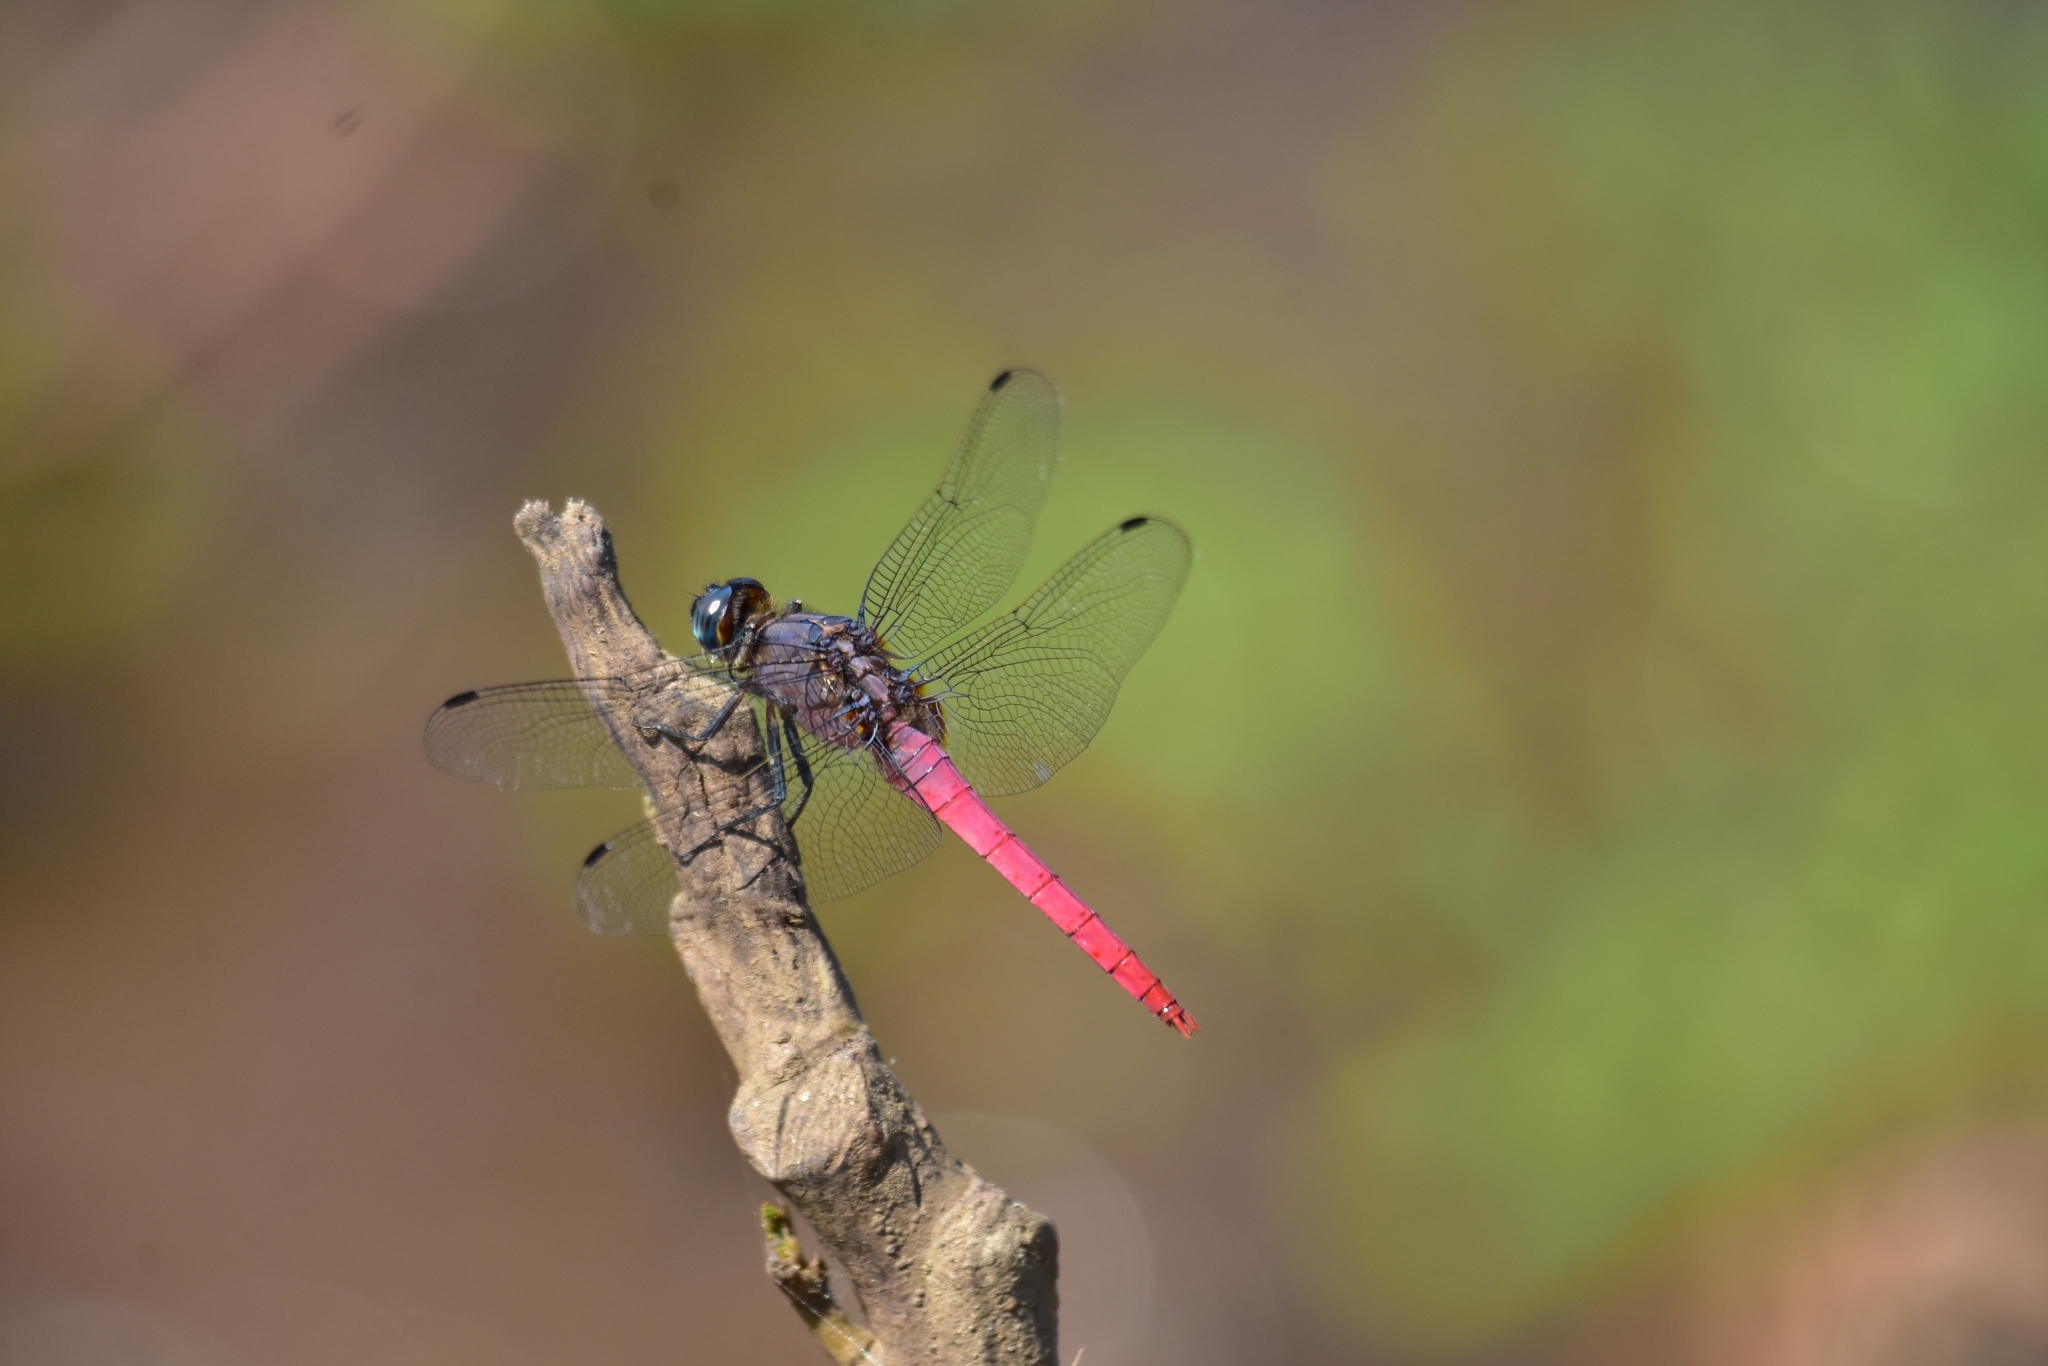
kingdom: Animalia
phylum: Arthropoda
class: Insecta
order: Odonata
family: Libellulidae
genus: Orthetrum
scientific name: Orthetrum pruinosum
